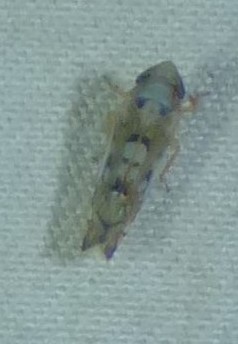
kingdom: Animalia
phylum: Arthropoda
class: Insecta
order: Hemiptera
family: Cicadellidae
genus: Scaphoideus
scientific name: Scaphoideus opalinus
